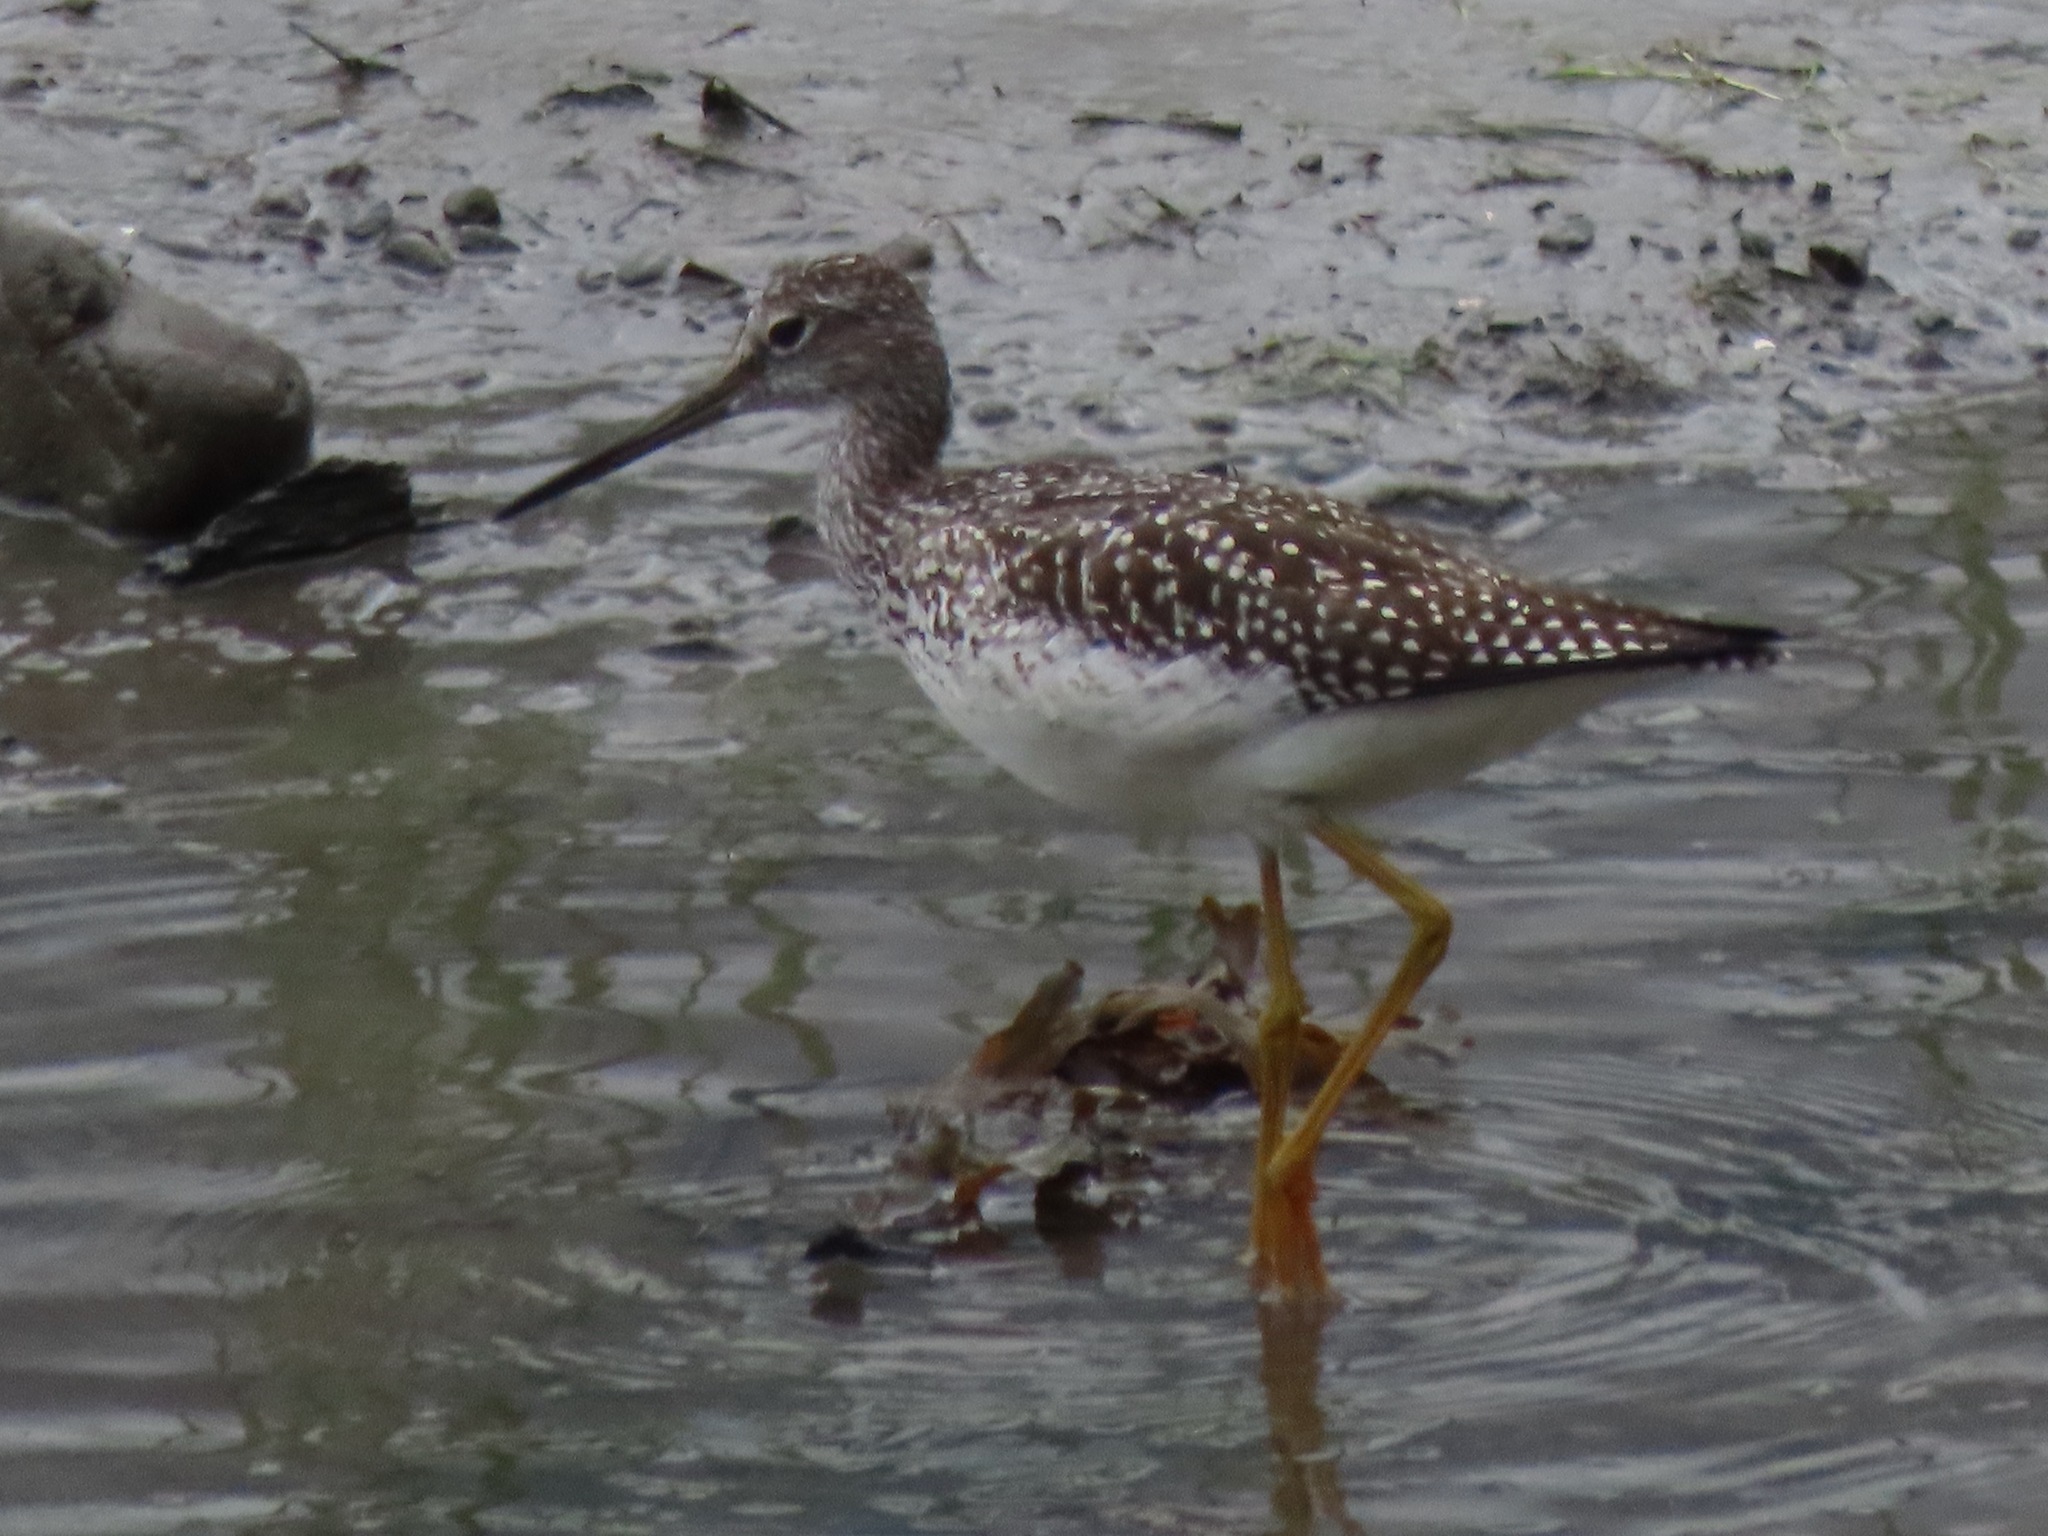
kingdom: Animalia
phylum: Chordata
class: Aves
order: Charadriiformes
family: Scolopacidae
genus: Tringa
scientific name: Tringa melanoleuca
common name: Greater yellowlegs
